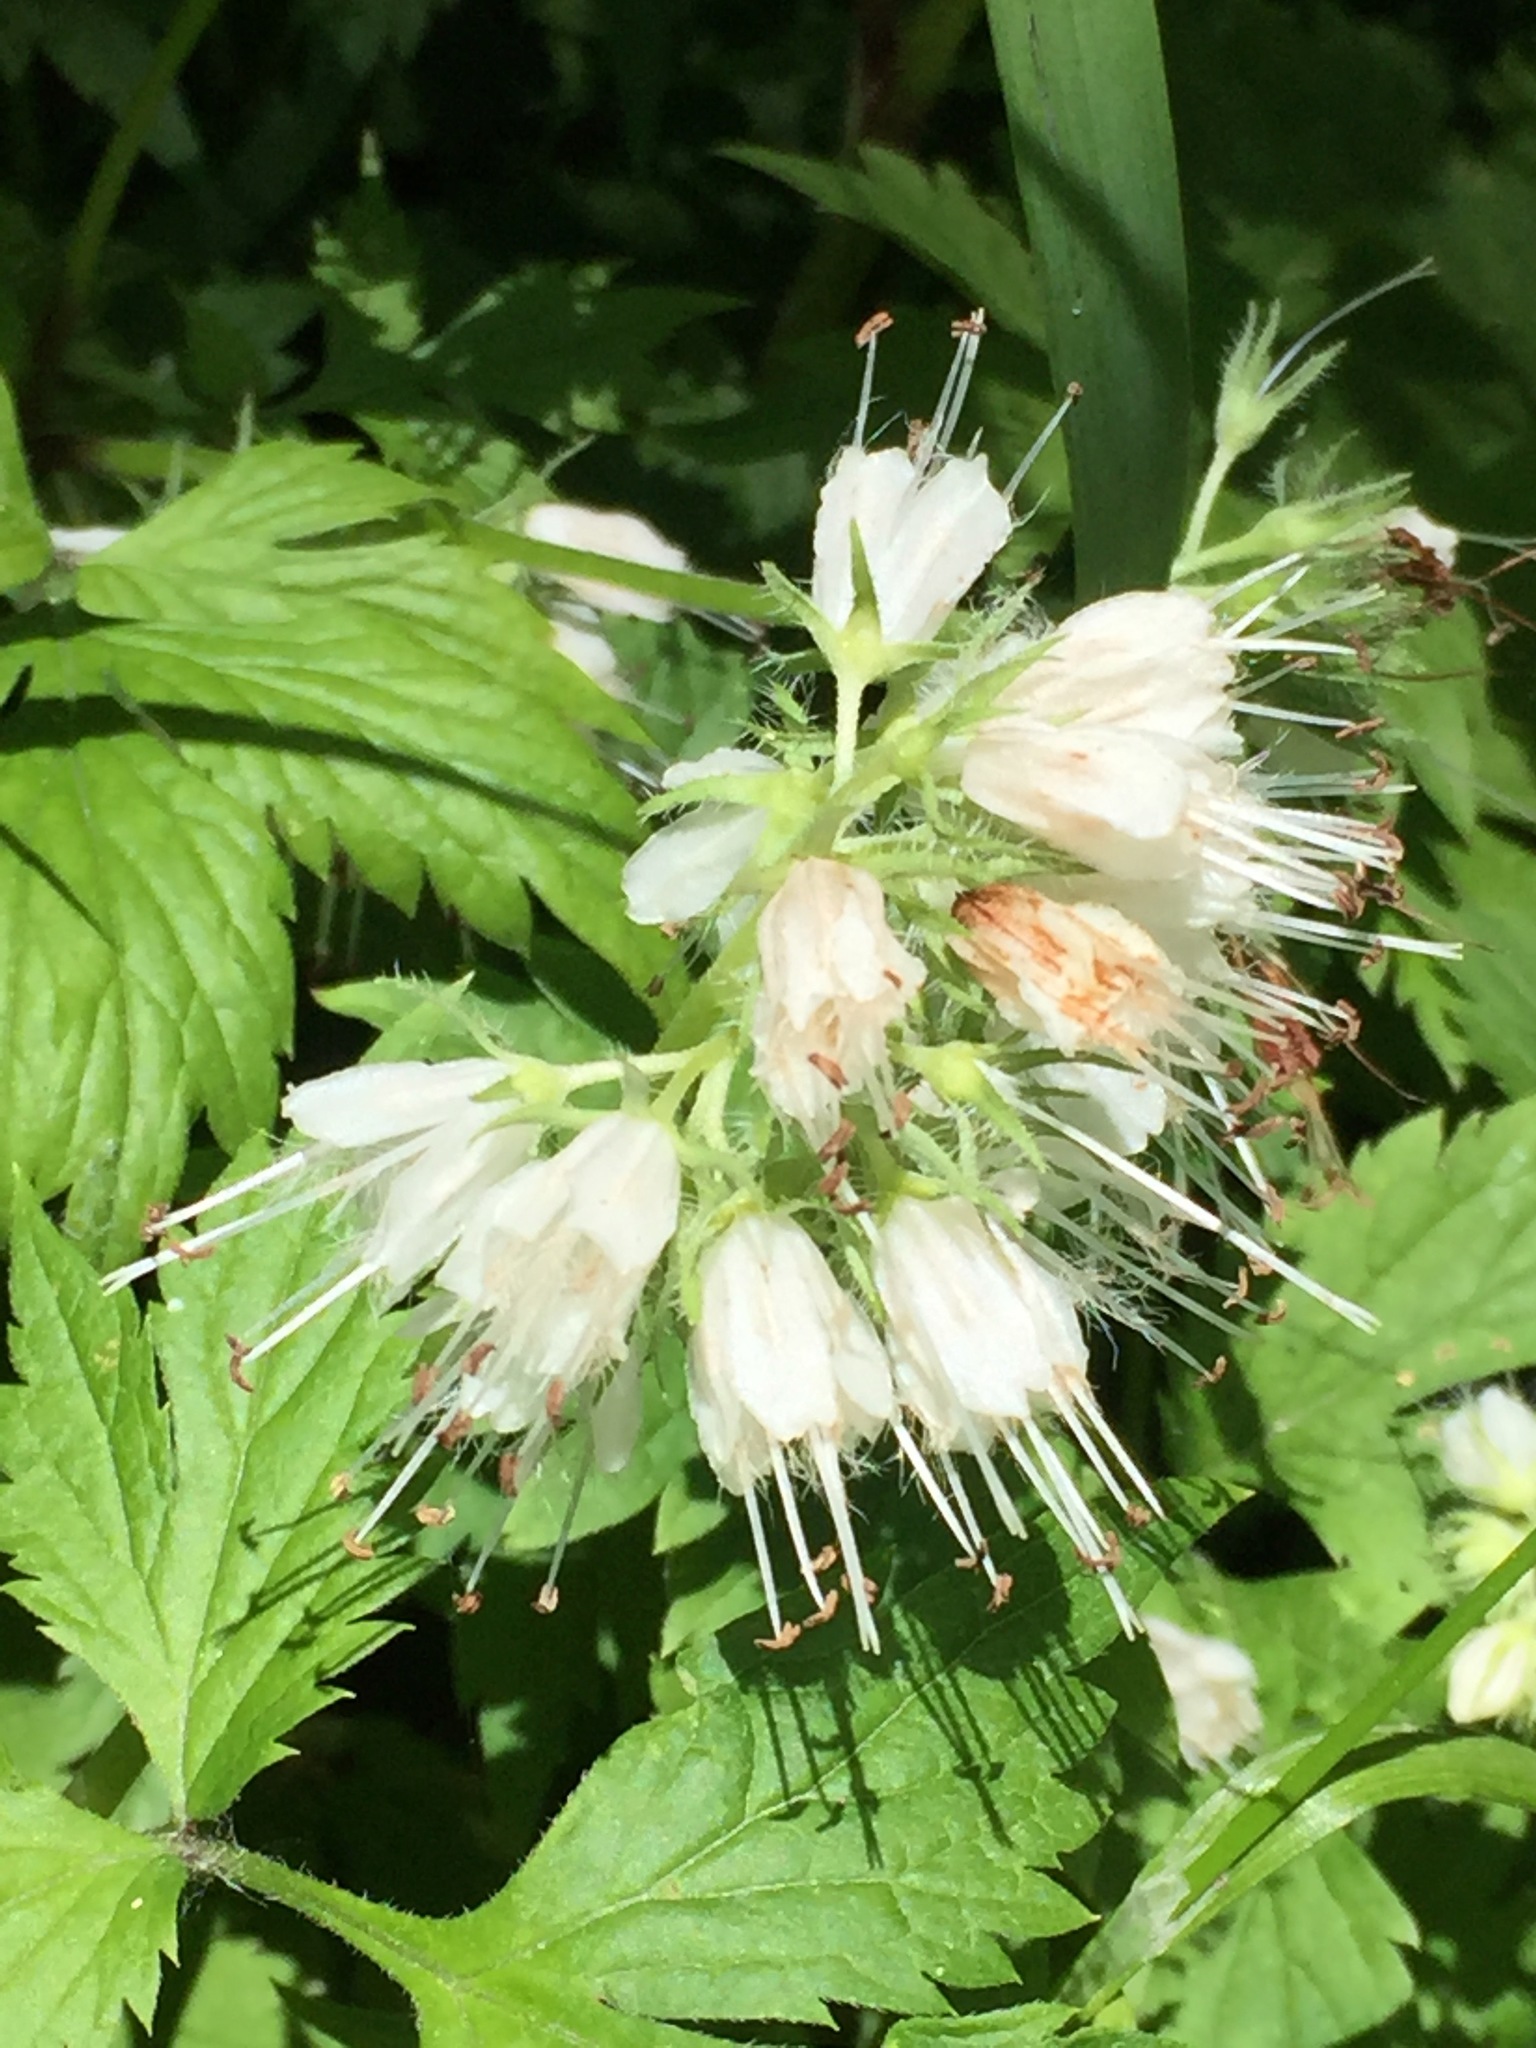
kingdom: Plantae
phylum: Tracheophyta
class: Magnoliopsida
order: Boraginales
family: Hydrophyllaceae
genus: Hydrophyllum
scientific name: Hydrophyllum virginianum
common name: Virginia waterleaf
